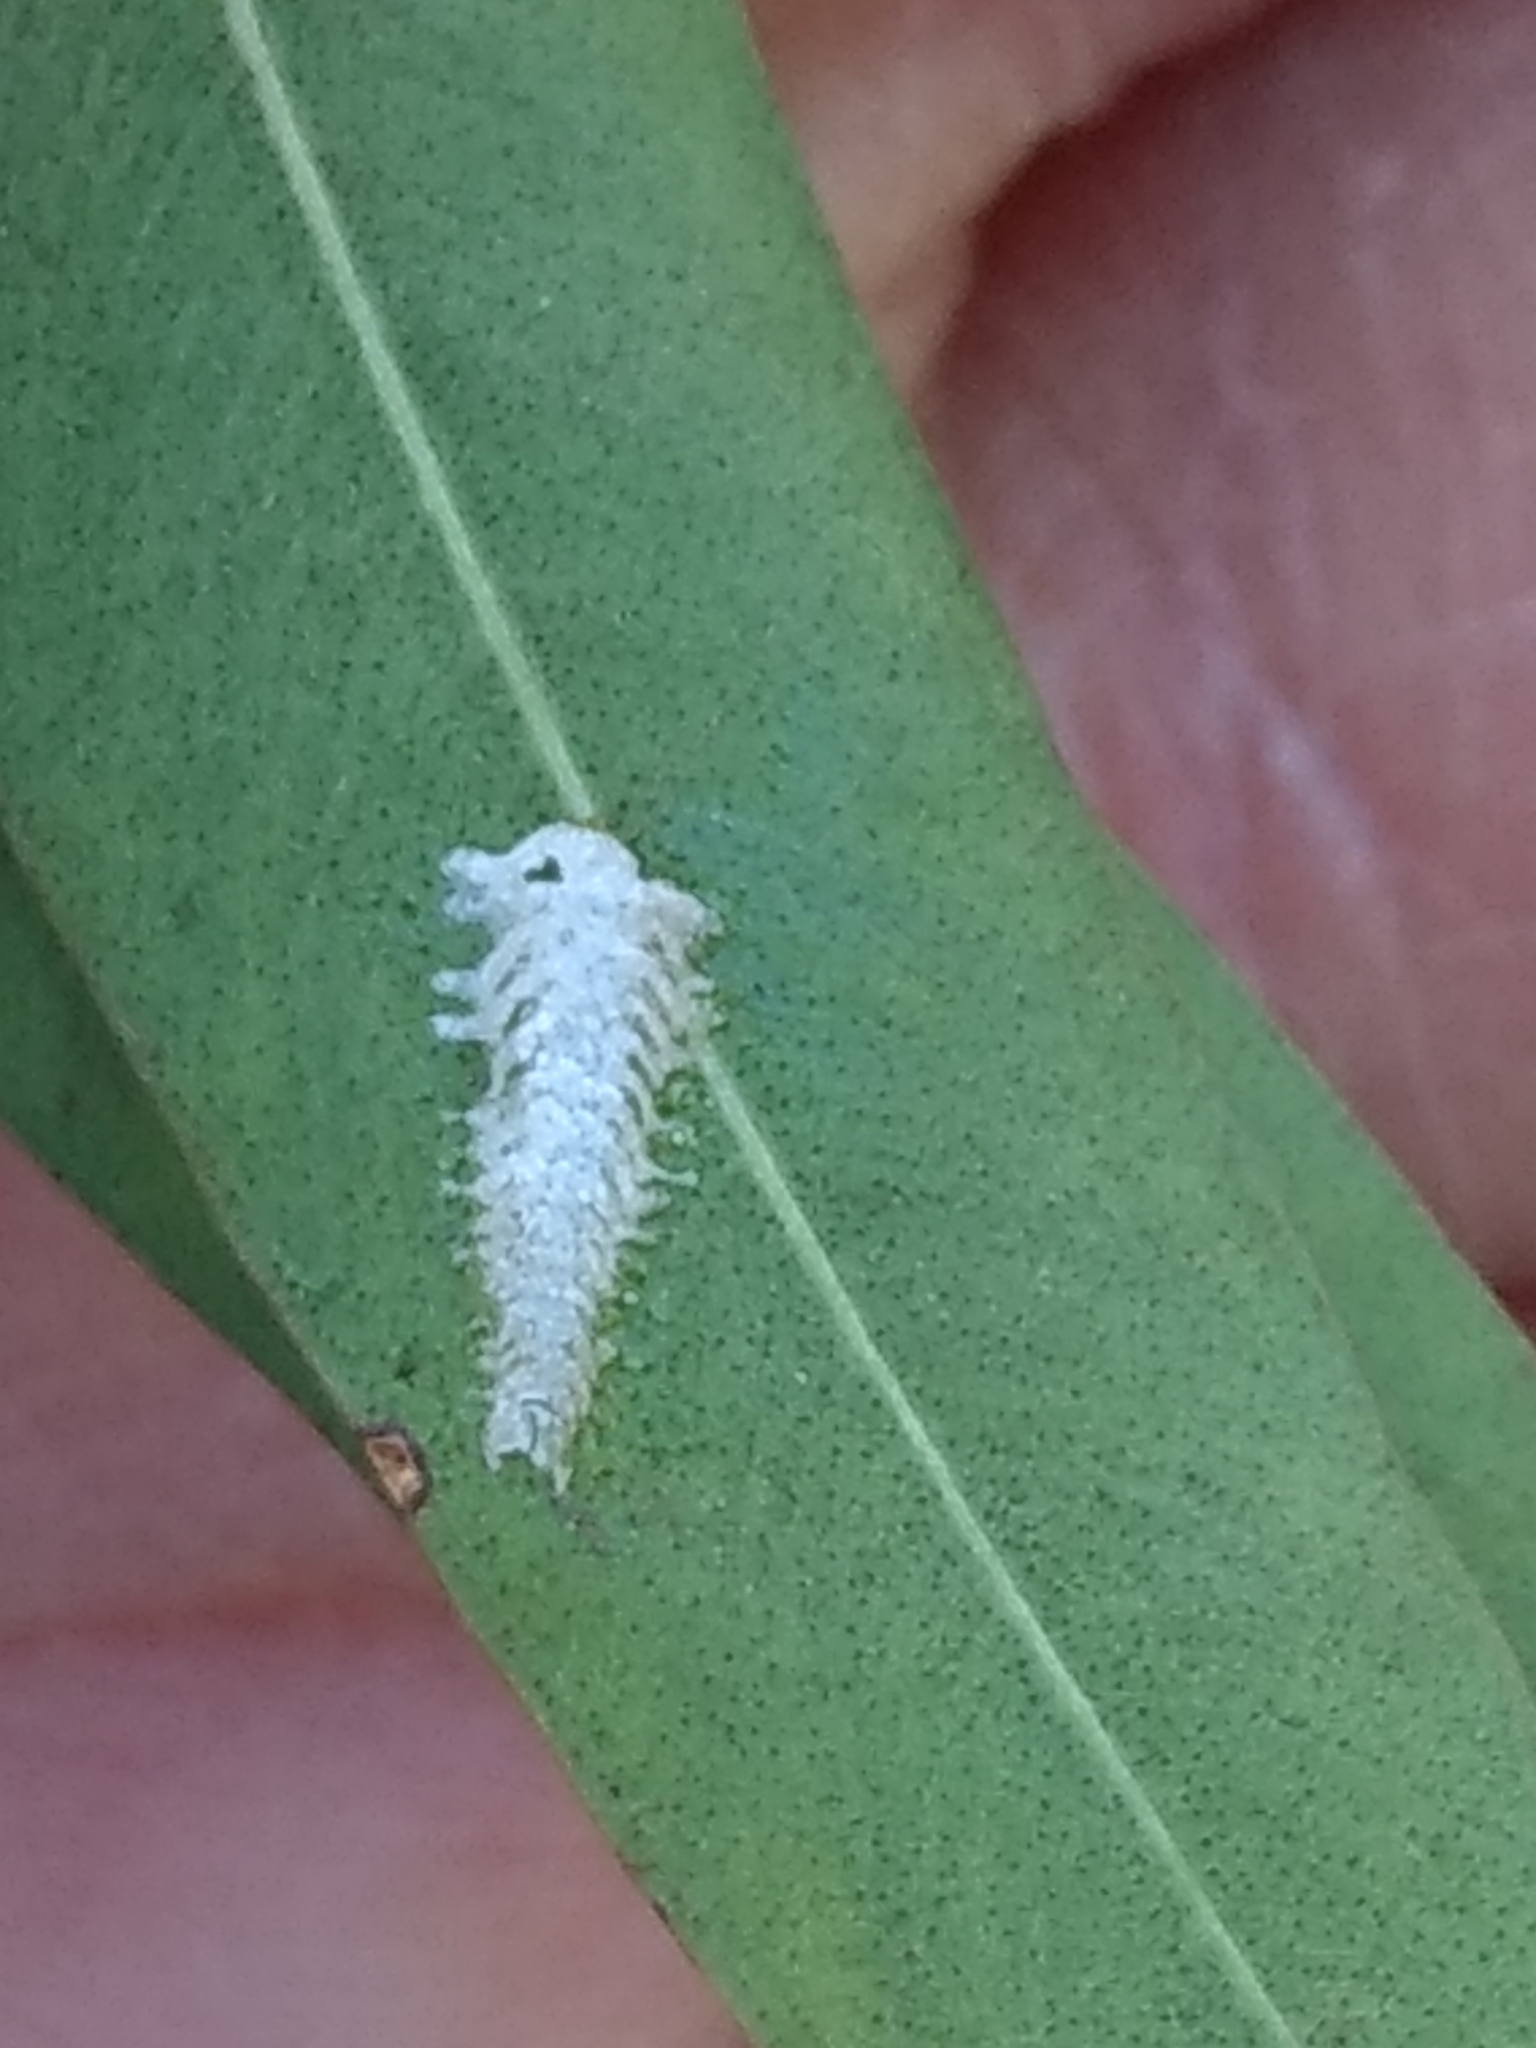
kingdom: Animalia
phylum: Arthropoda
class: Insecta
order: Hemiptera
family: Aphalaridae
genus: Eucalyptolyma
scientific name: Eucalyptolyma maideni
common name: Spotted gum lerp psyllid
